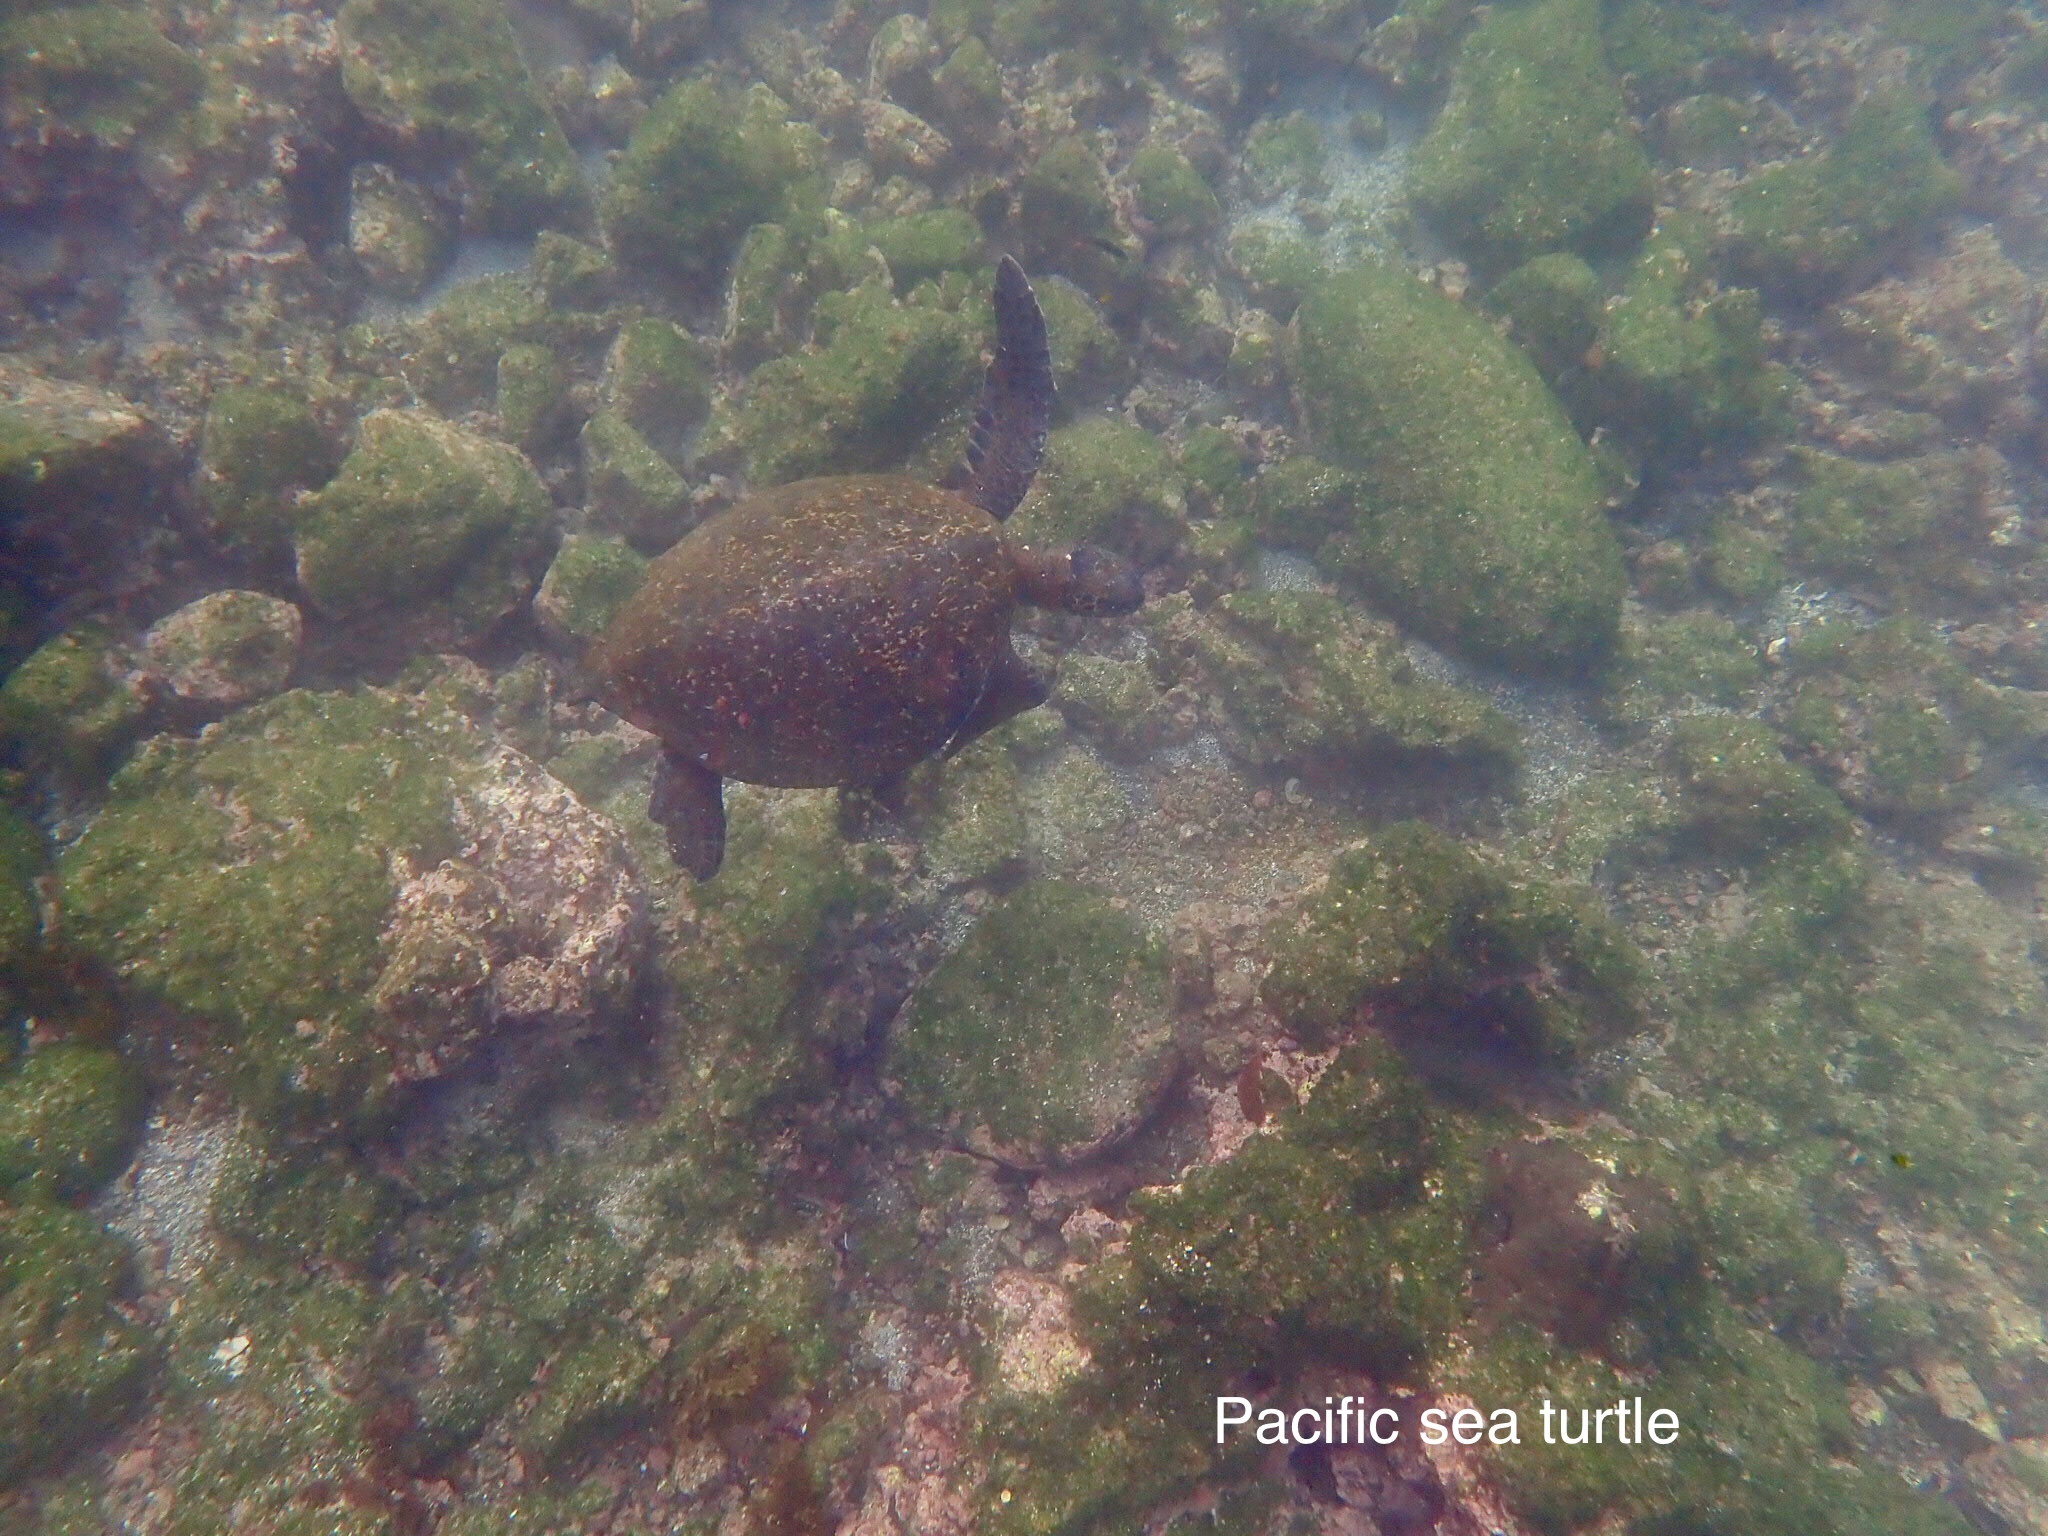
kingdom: Animalia
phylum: Chordata
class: Testudines
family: Cheloniidae
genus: Chelonia
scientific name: Chelonia mydas
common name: Green turtle
